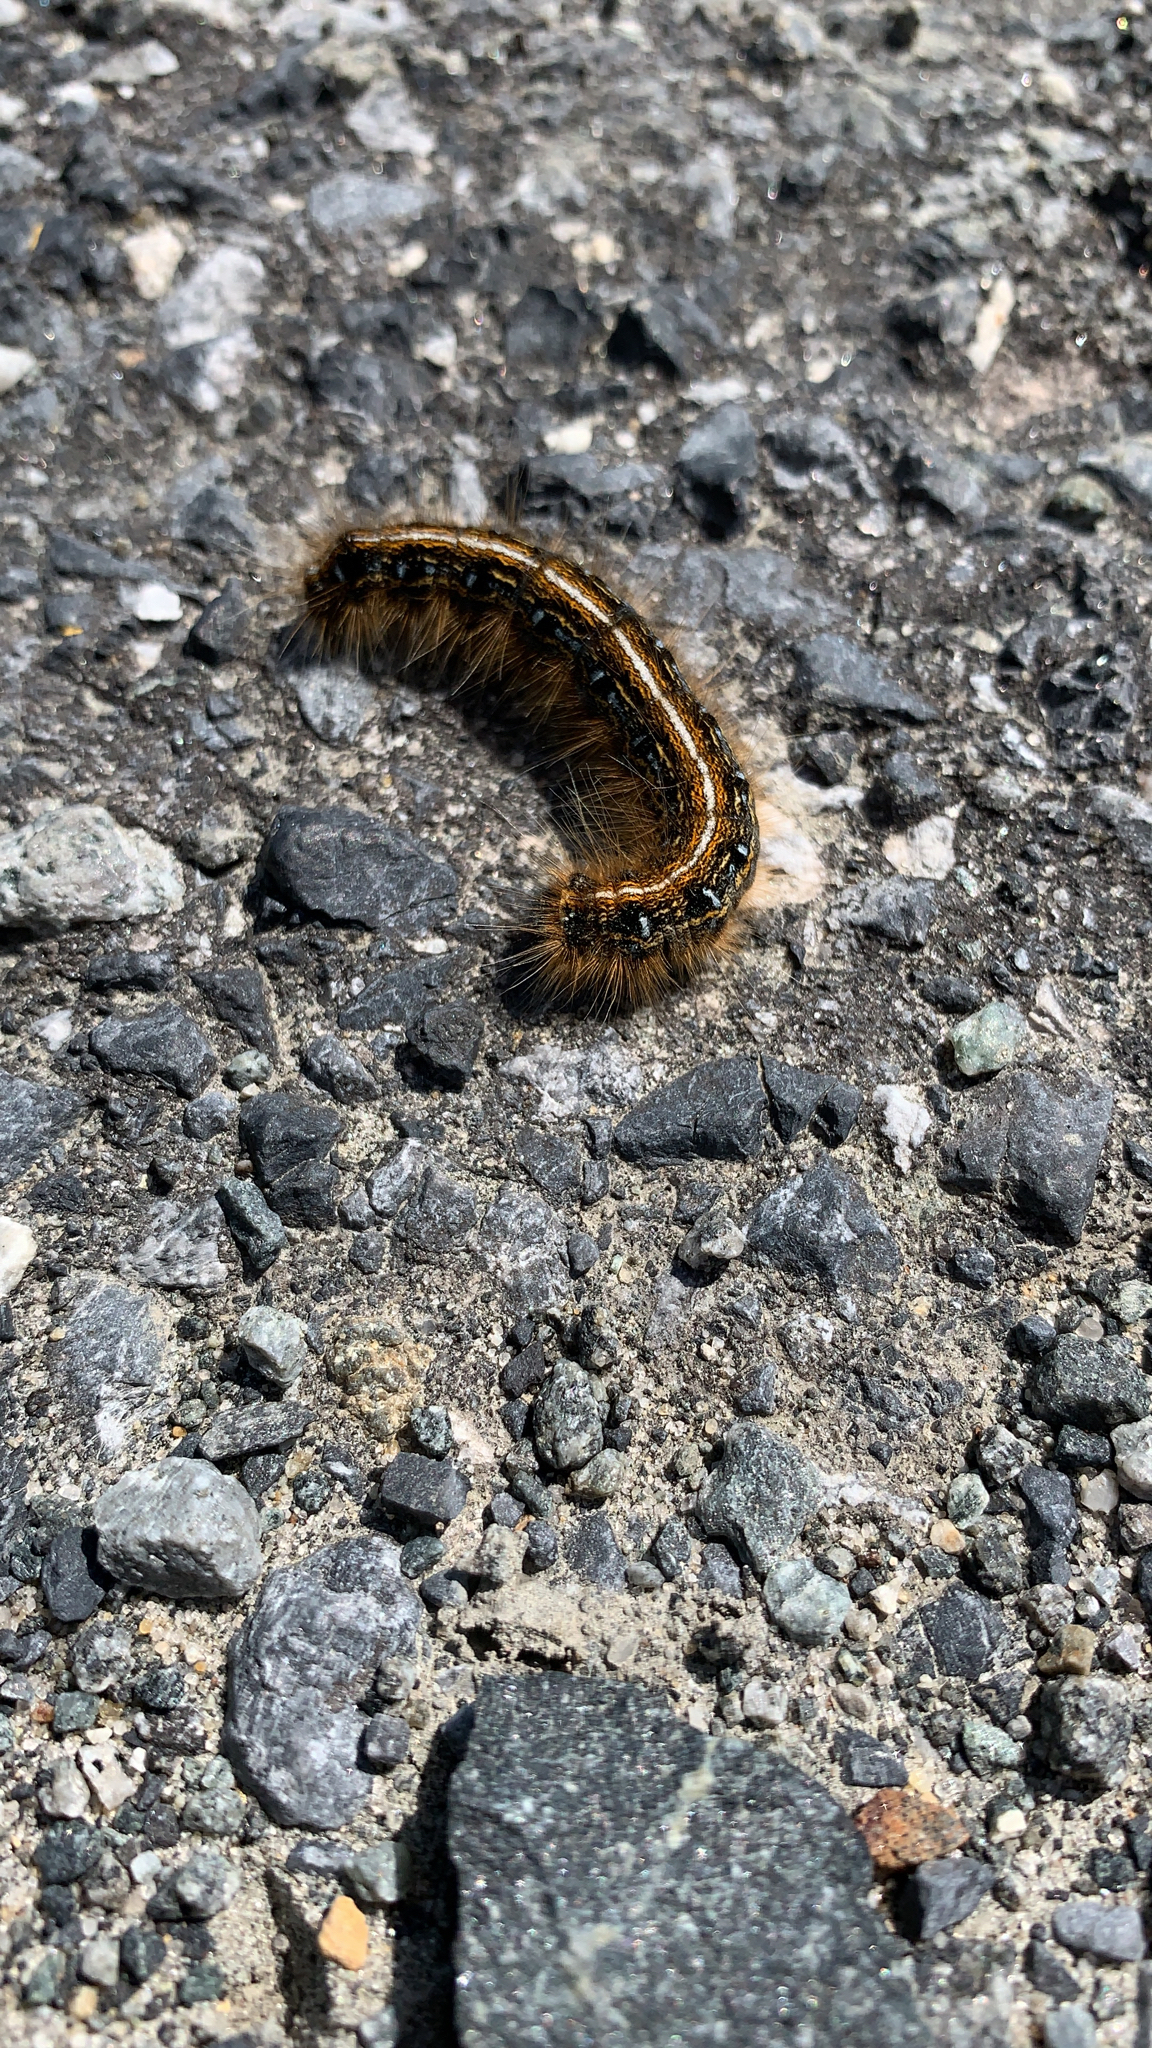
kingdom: Animalia
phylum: Arthropoda
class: Insecta
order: Lepidoptera
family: Lasiocampidae
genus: Malacosoma
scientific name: Malacosoma americana
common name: Eastern tent caterpillar moth
